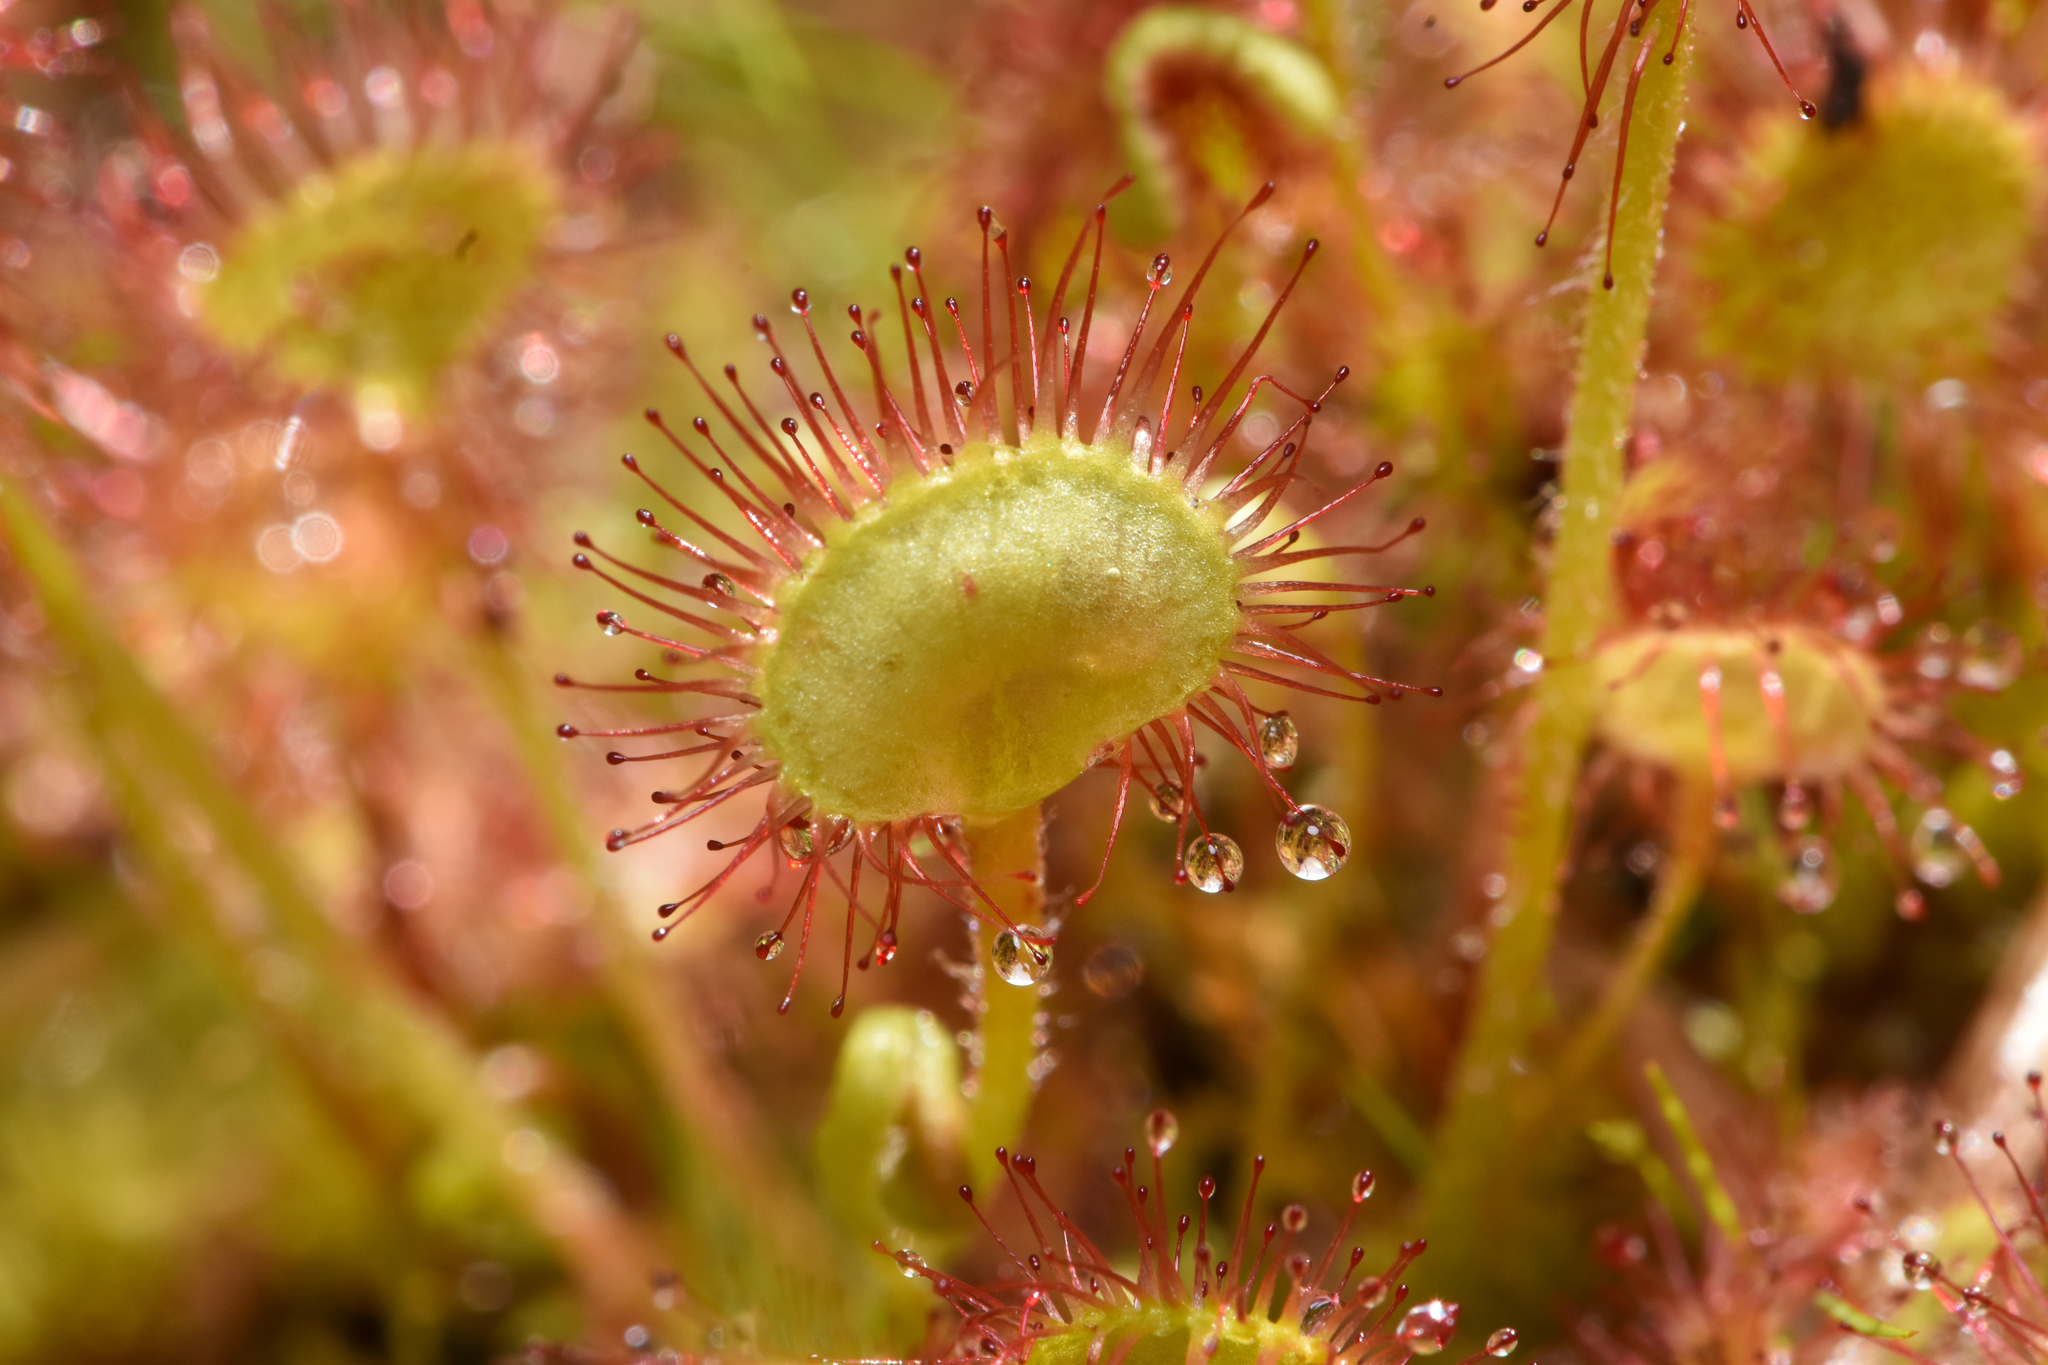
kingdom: Plantae
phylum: Tracheophyta
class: Magnoliopsida
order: Caryophyllales
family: Droseraceae
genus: Drosera
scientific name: Drosera rotundifolia
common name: Round-leaved sundew
